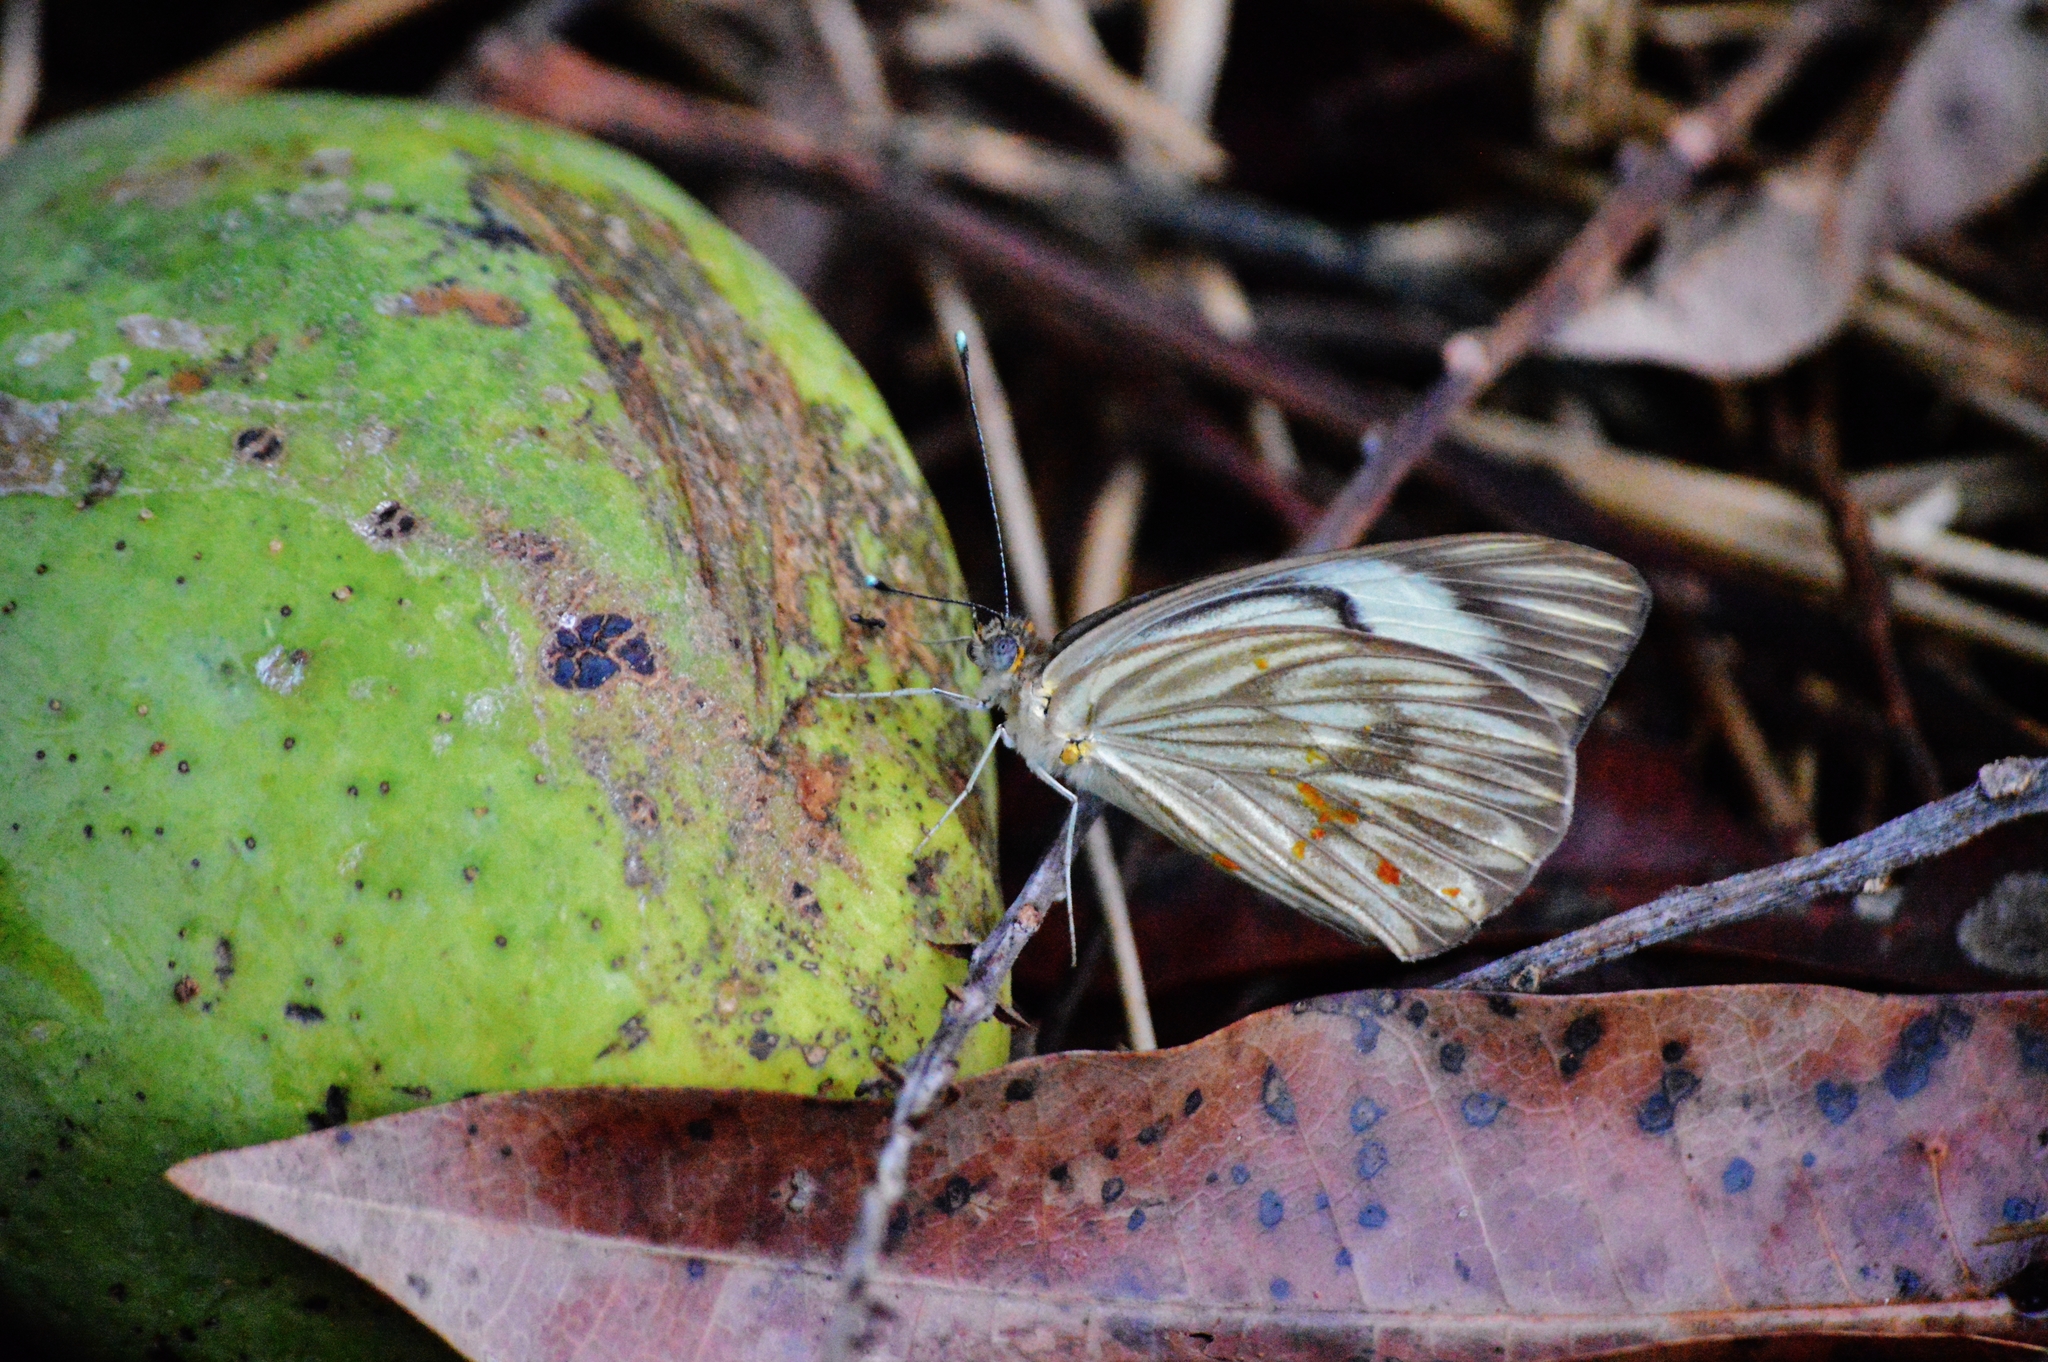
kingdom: Animalia
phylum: Arthropoda
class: Insecta
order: Lepidoptera
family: Pieridae
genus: Ascia
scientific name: Ascia monuste
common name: Great southern white
